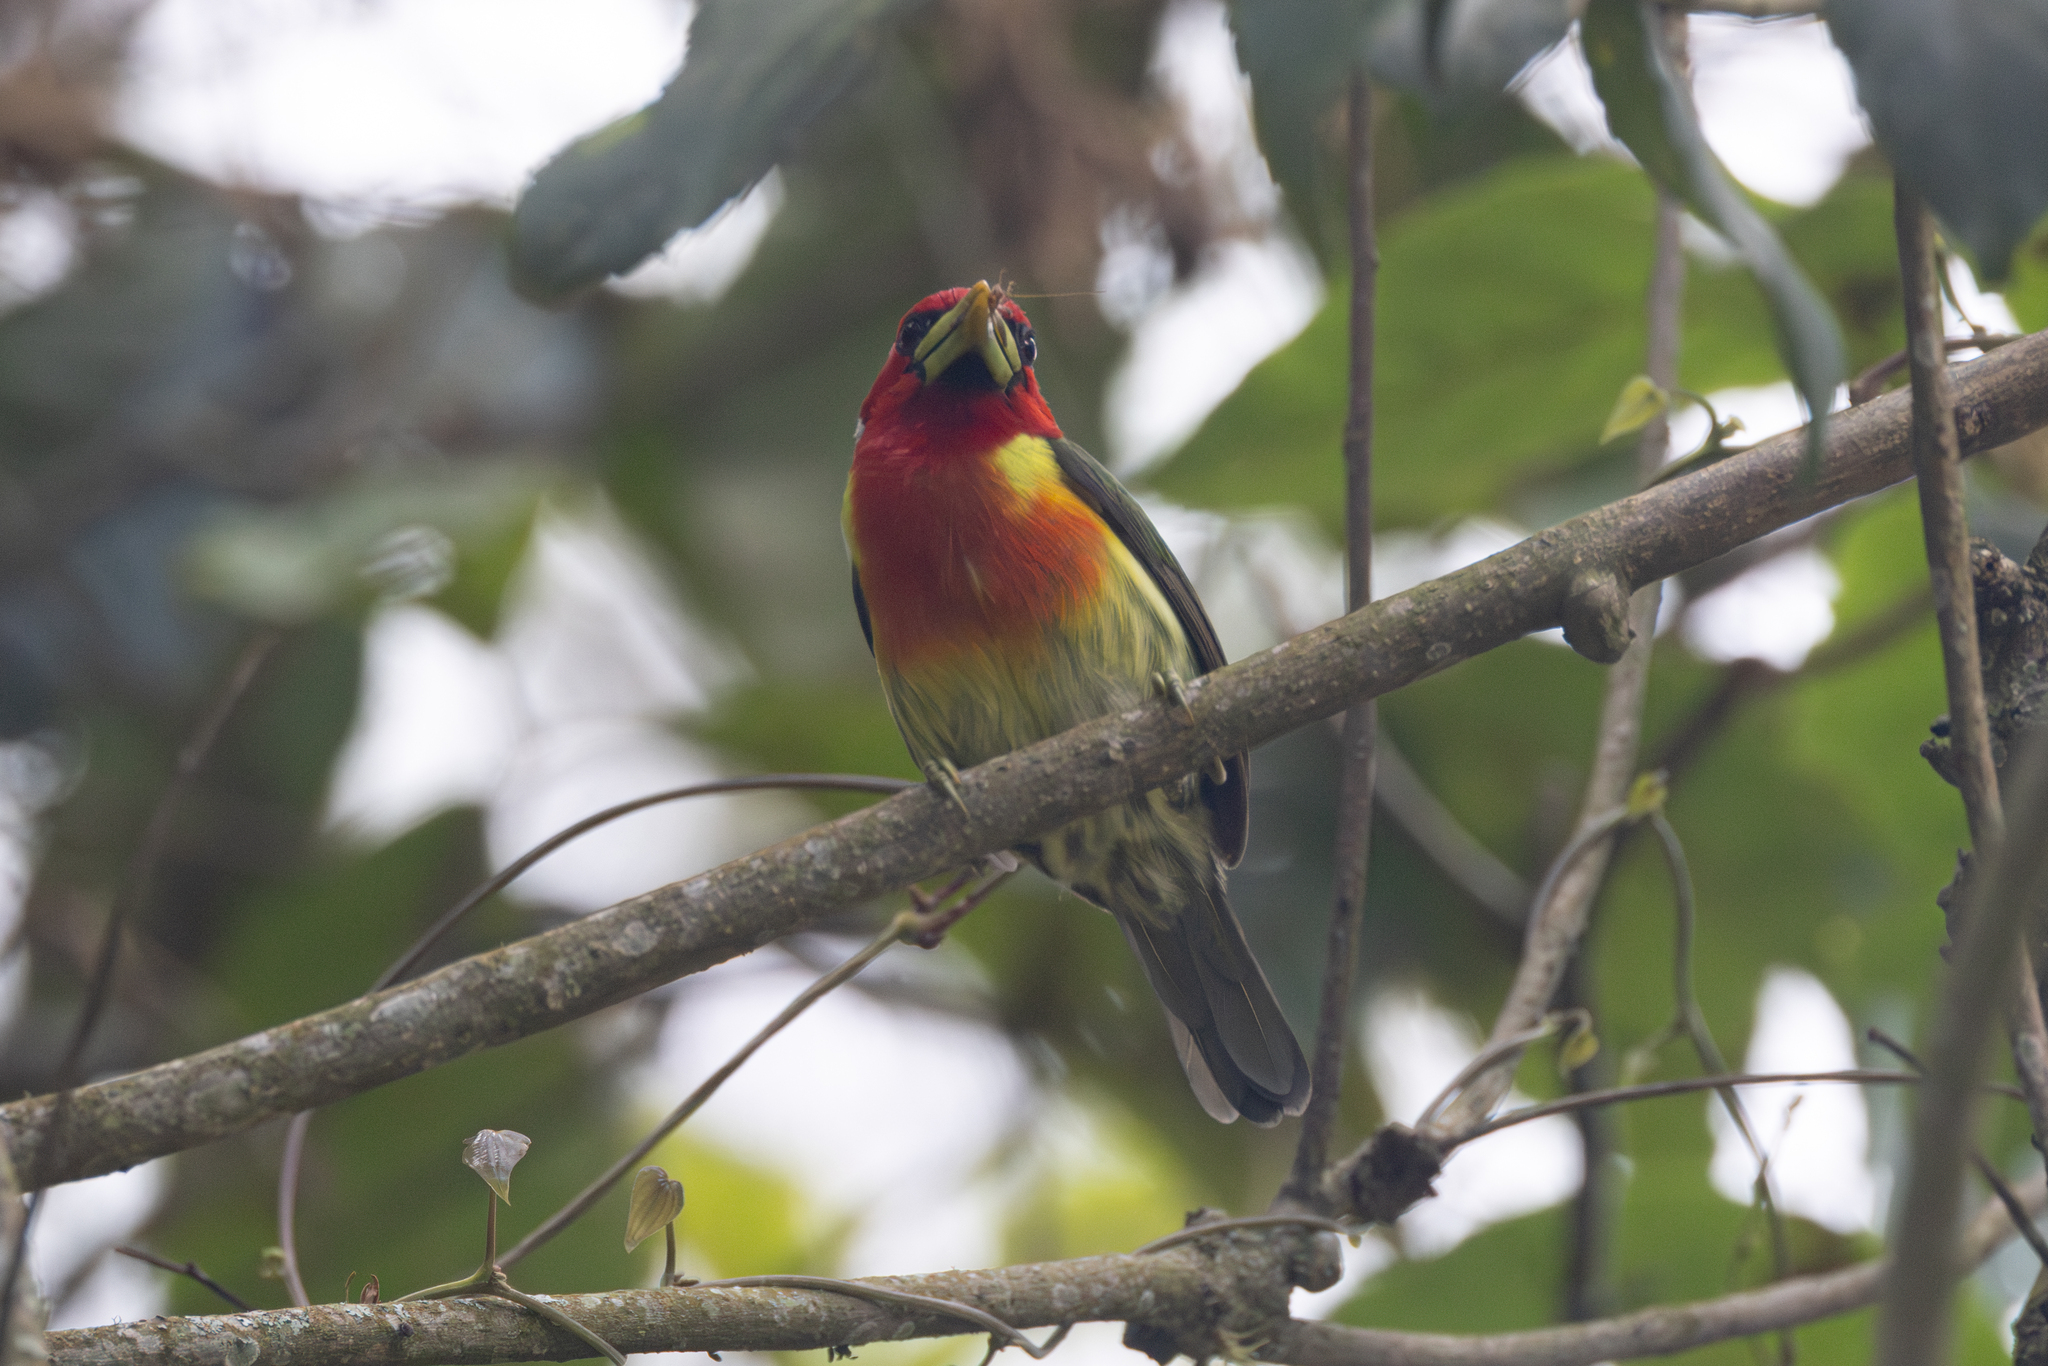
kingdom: Animalia
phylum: Chordata
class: Aves
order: Piciformes
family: Capitonidae
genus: Eubucco
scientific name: Eubucco bourcierii
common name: Red-headed barbet
